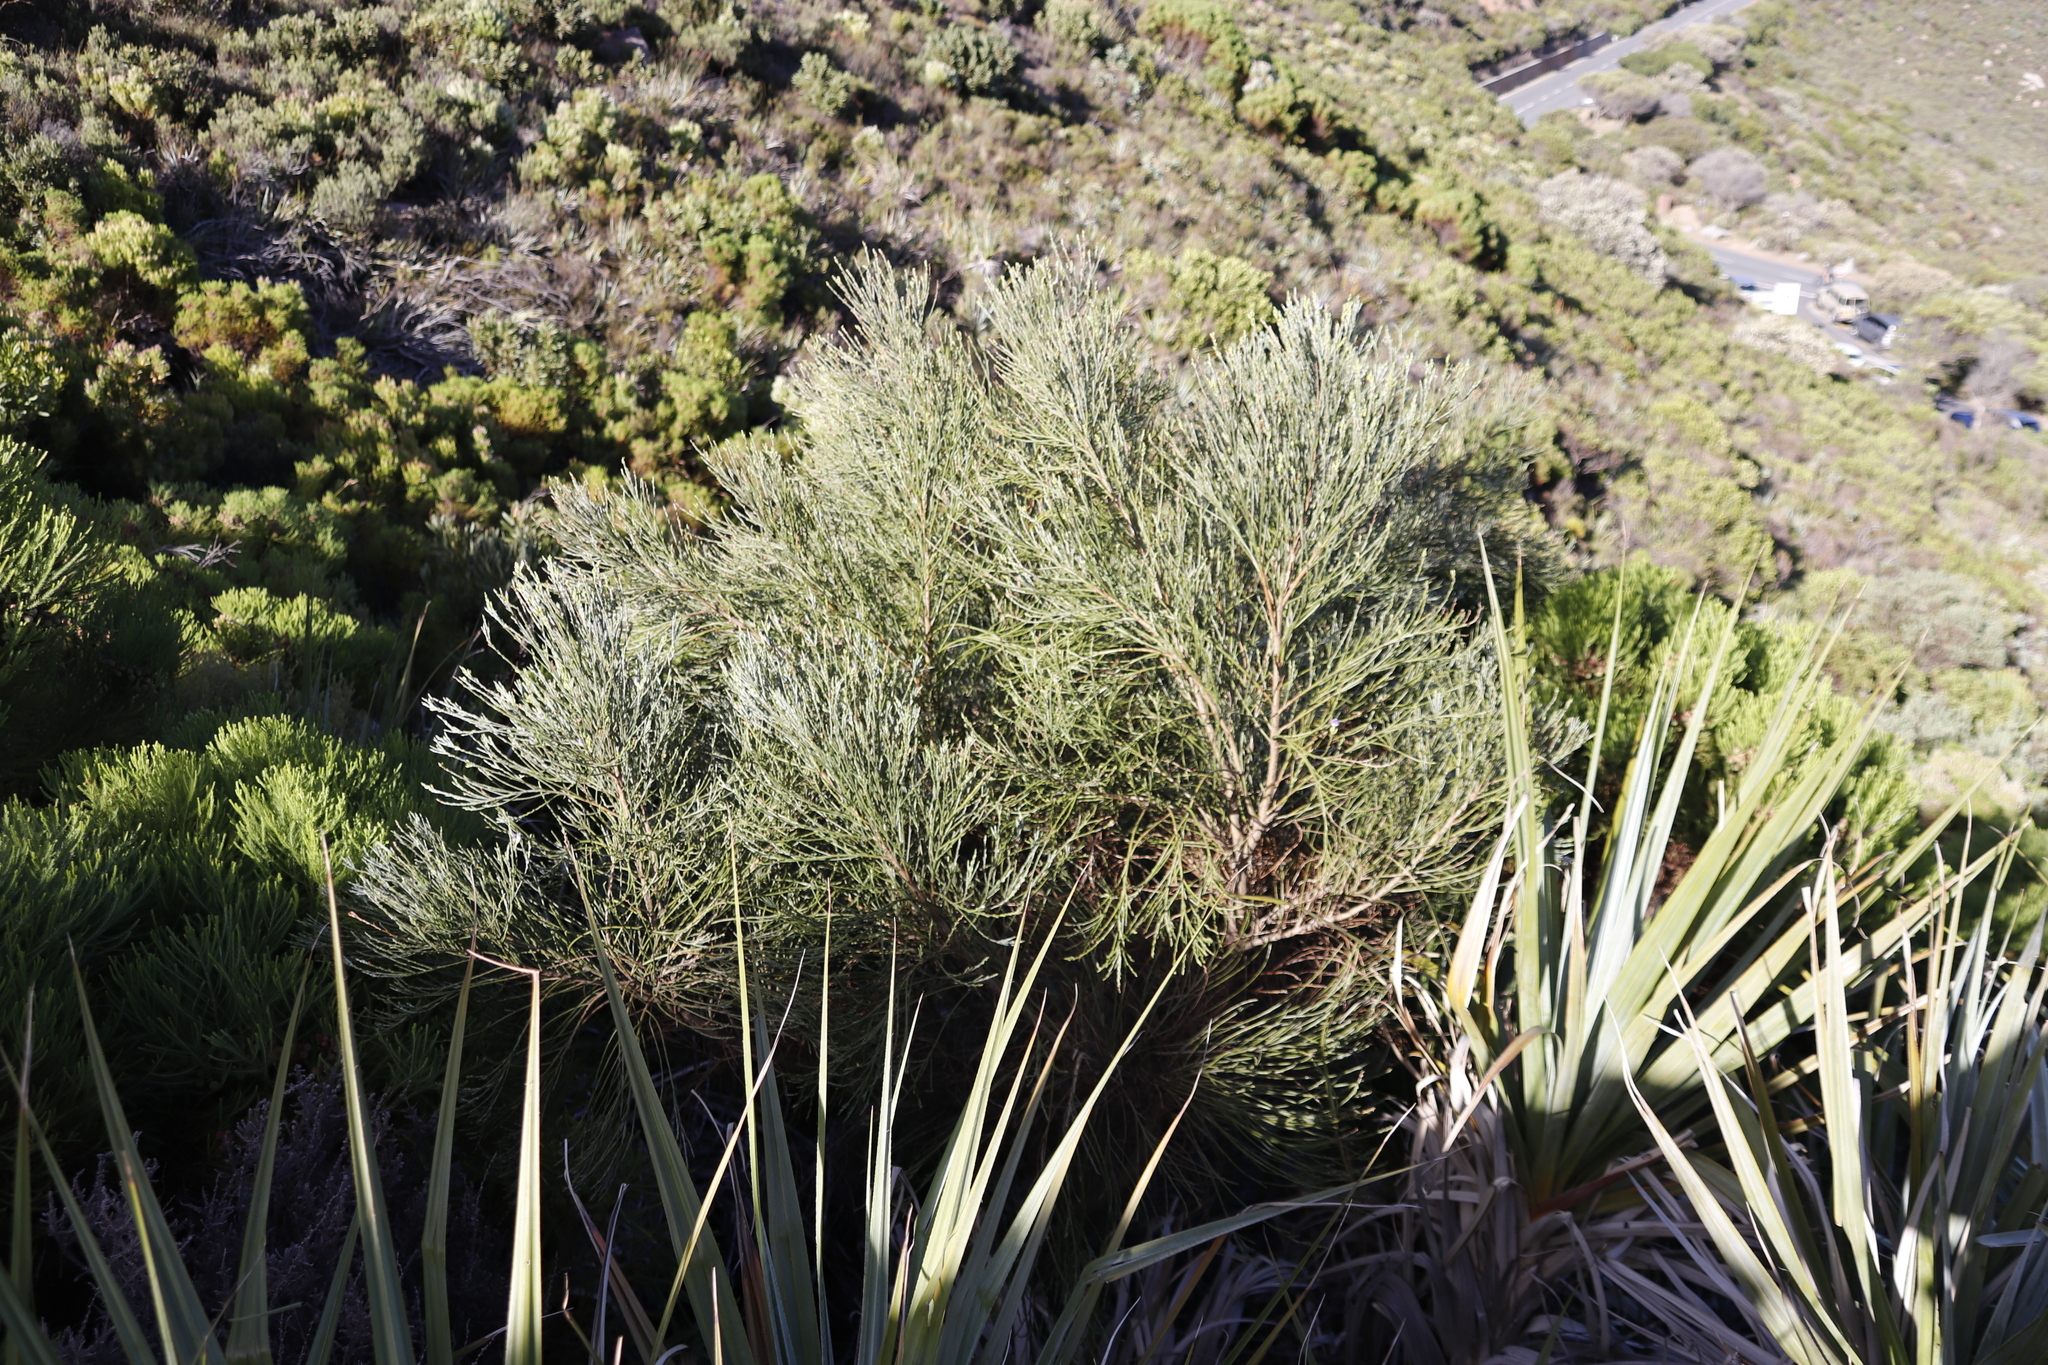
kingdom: Plantae
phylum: Tracheophyta
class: Magnoliopsida
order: Fabales
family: Fabaceae
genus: Psoralea
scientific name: Psoralea aphylla
